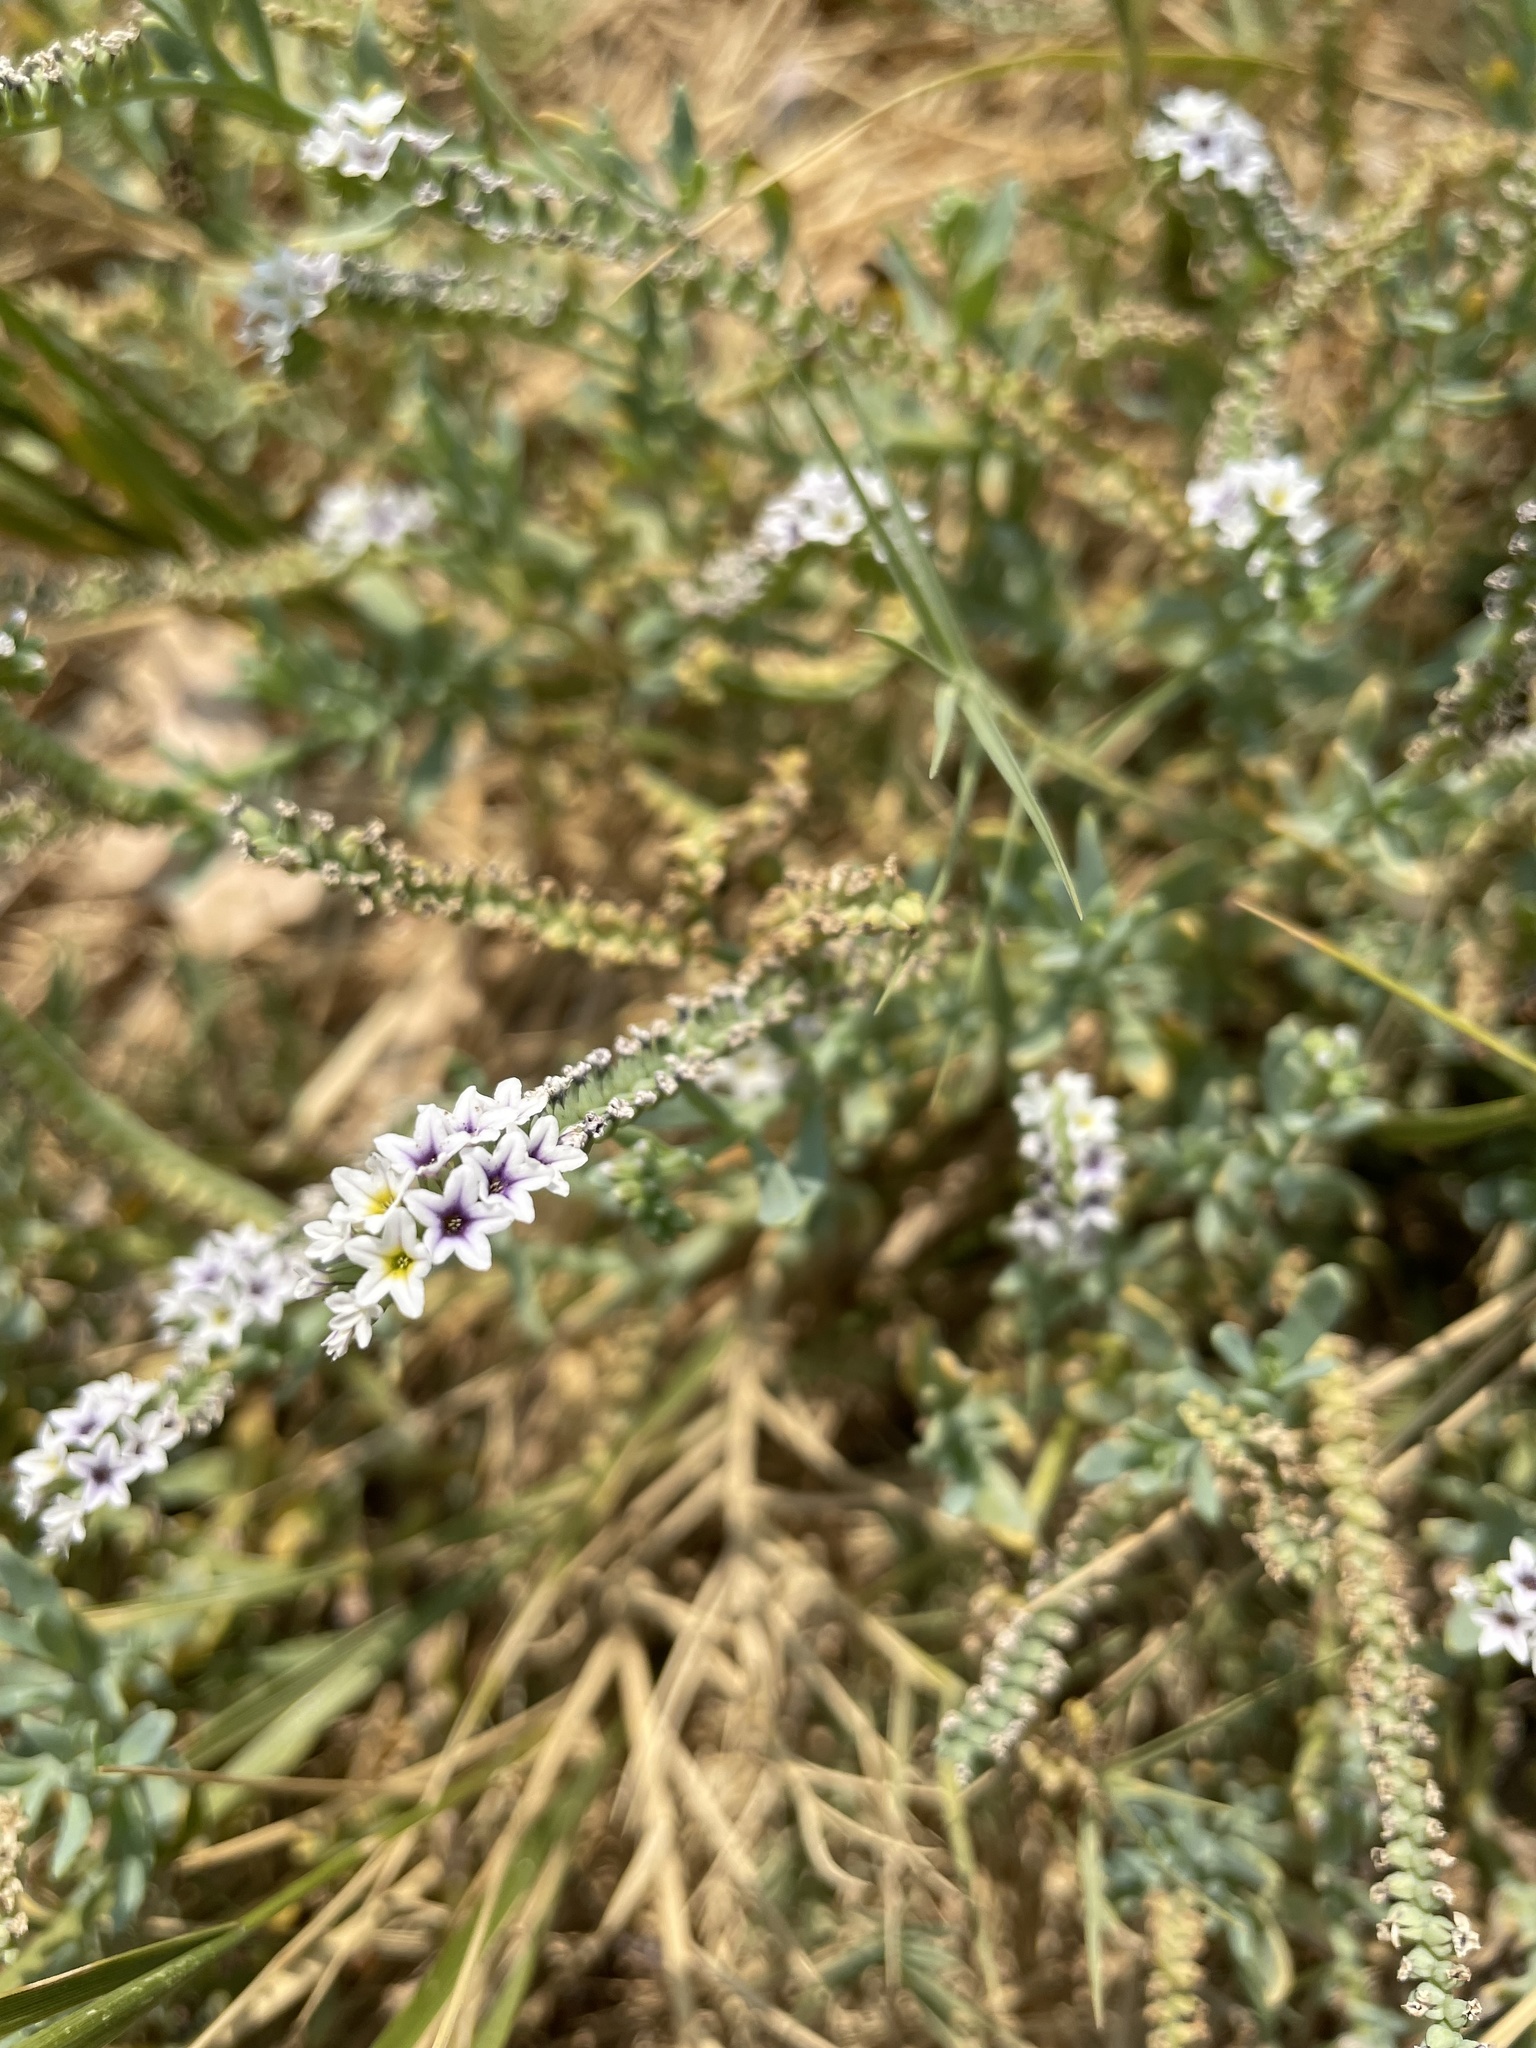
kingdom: Plantae
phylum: Tracheophyta
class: Magnoliopsida
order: Boraginales
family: Heliotropiaceae
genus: Heliotropium
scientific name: Heliotropium curassavicum
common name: Seaside heliotrope
